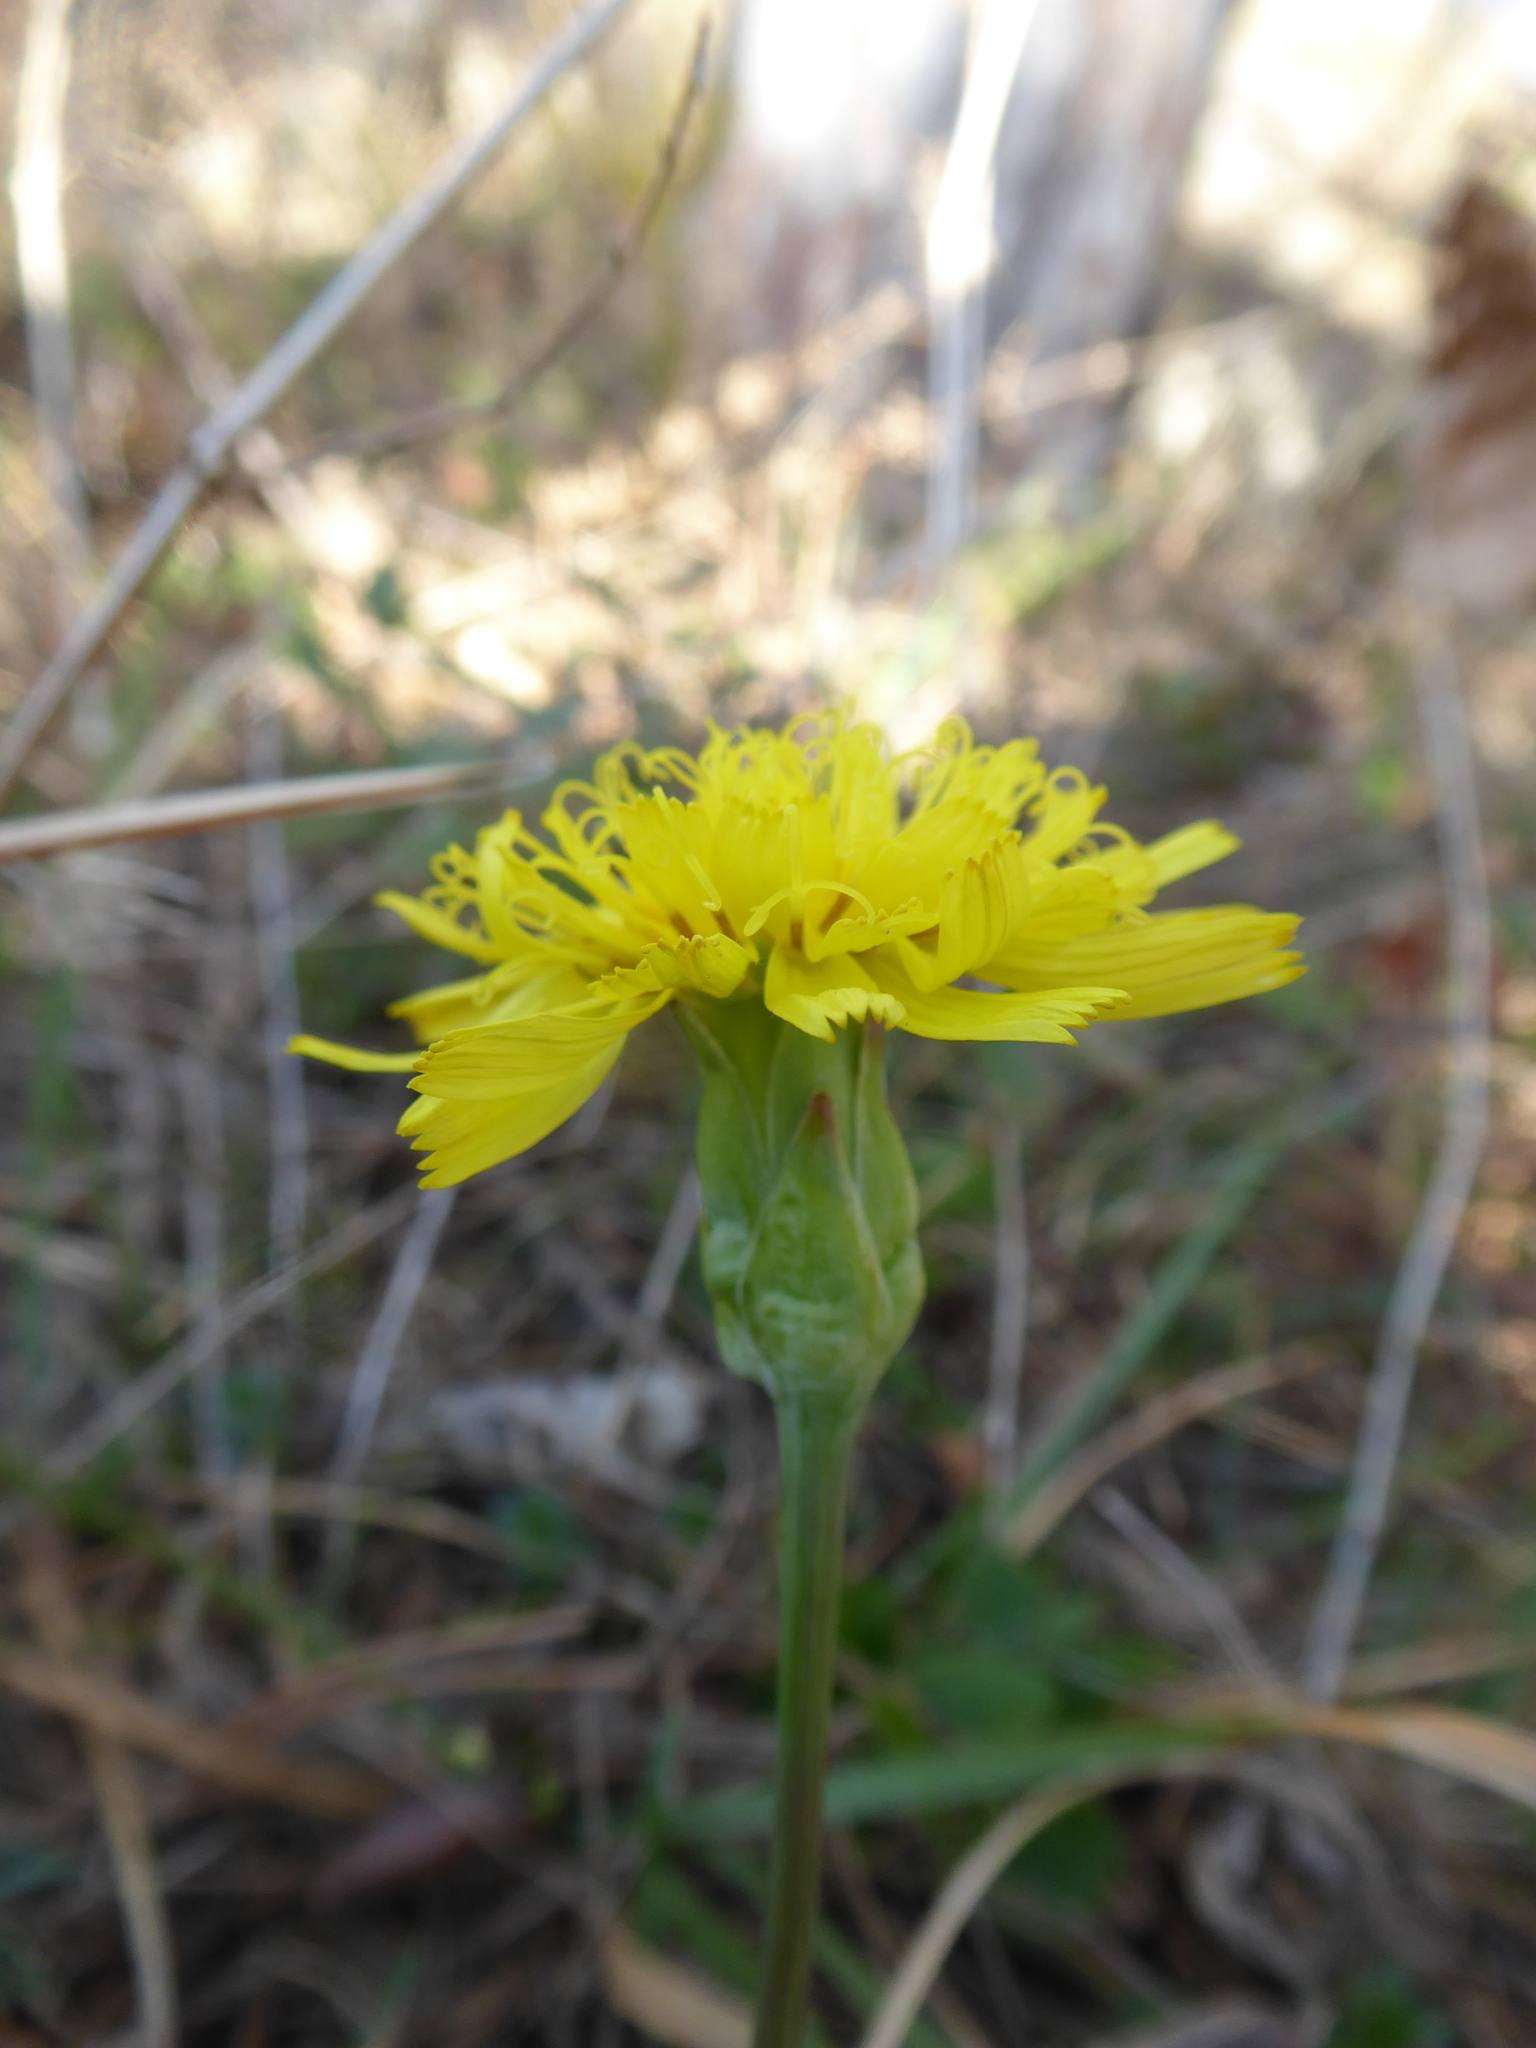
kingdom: Plantae
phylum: Tracheophyta
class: Magnoliopsida
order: Asterales
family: Asteraceae
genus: Takhtajaniantha
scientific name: Takhtajaniantha austriaca
